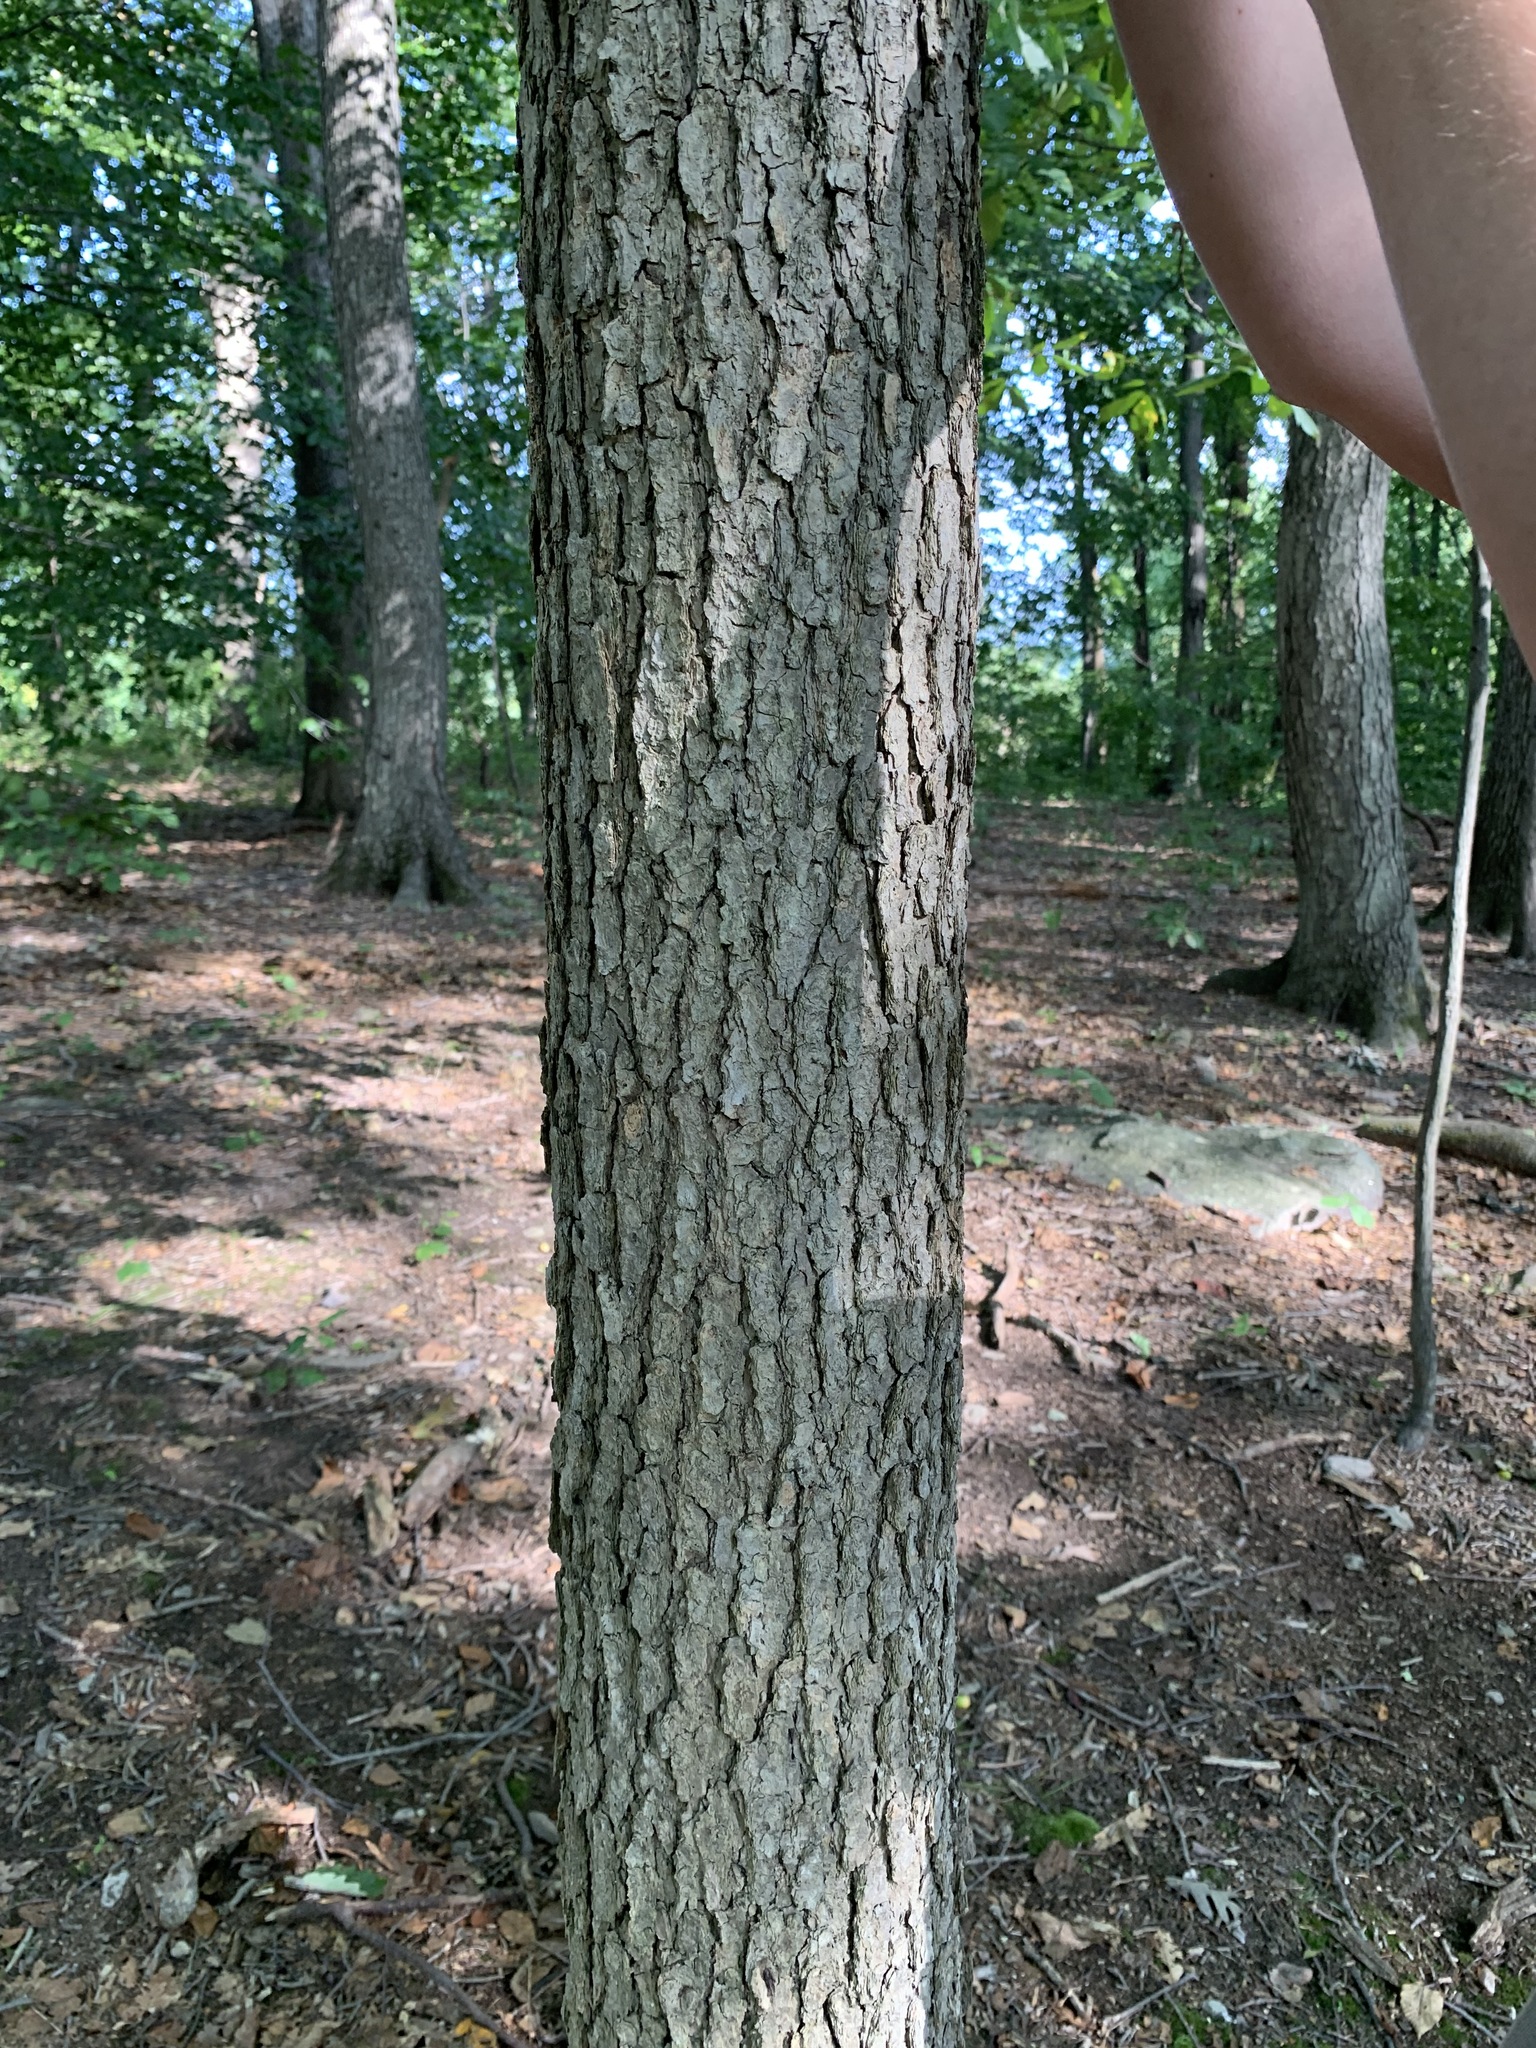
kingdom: Plantae
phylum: Tracheophyta
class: Magnoliopsida
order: Cornales
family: Nyssaceae
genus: Nyssa
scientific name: Nyssa sylvatica
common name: Black tupelo
